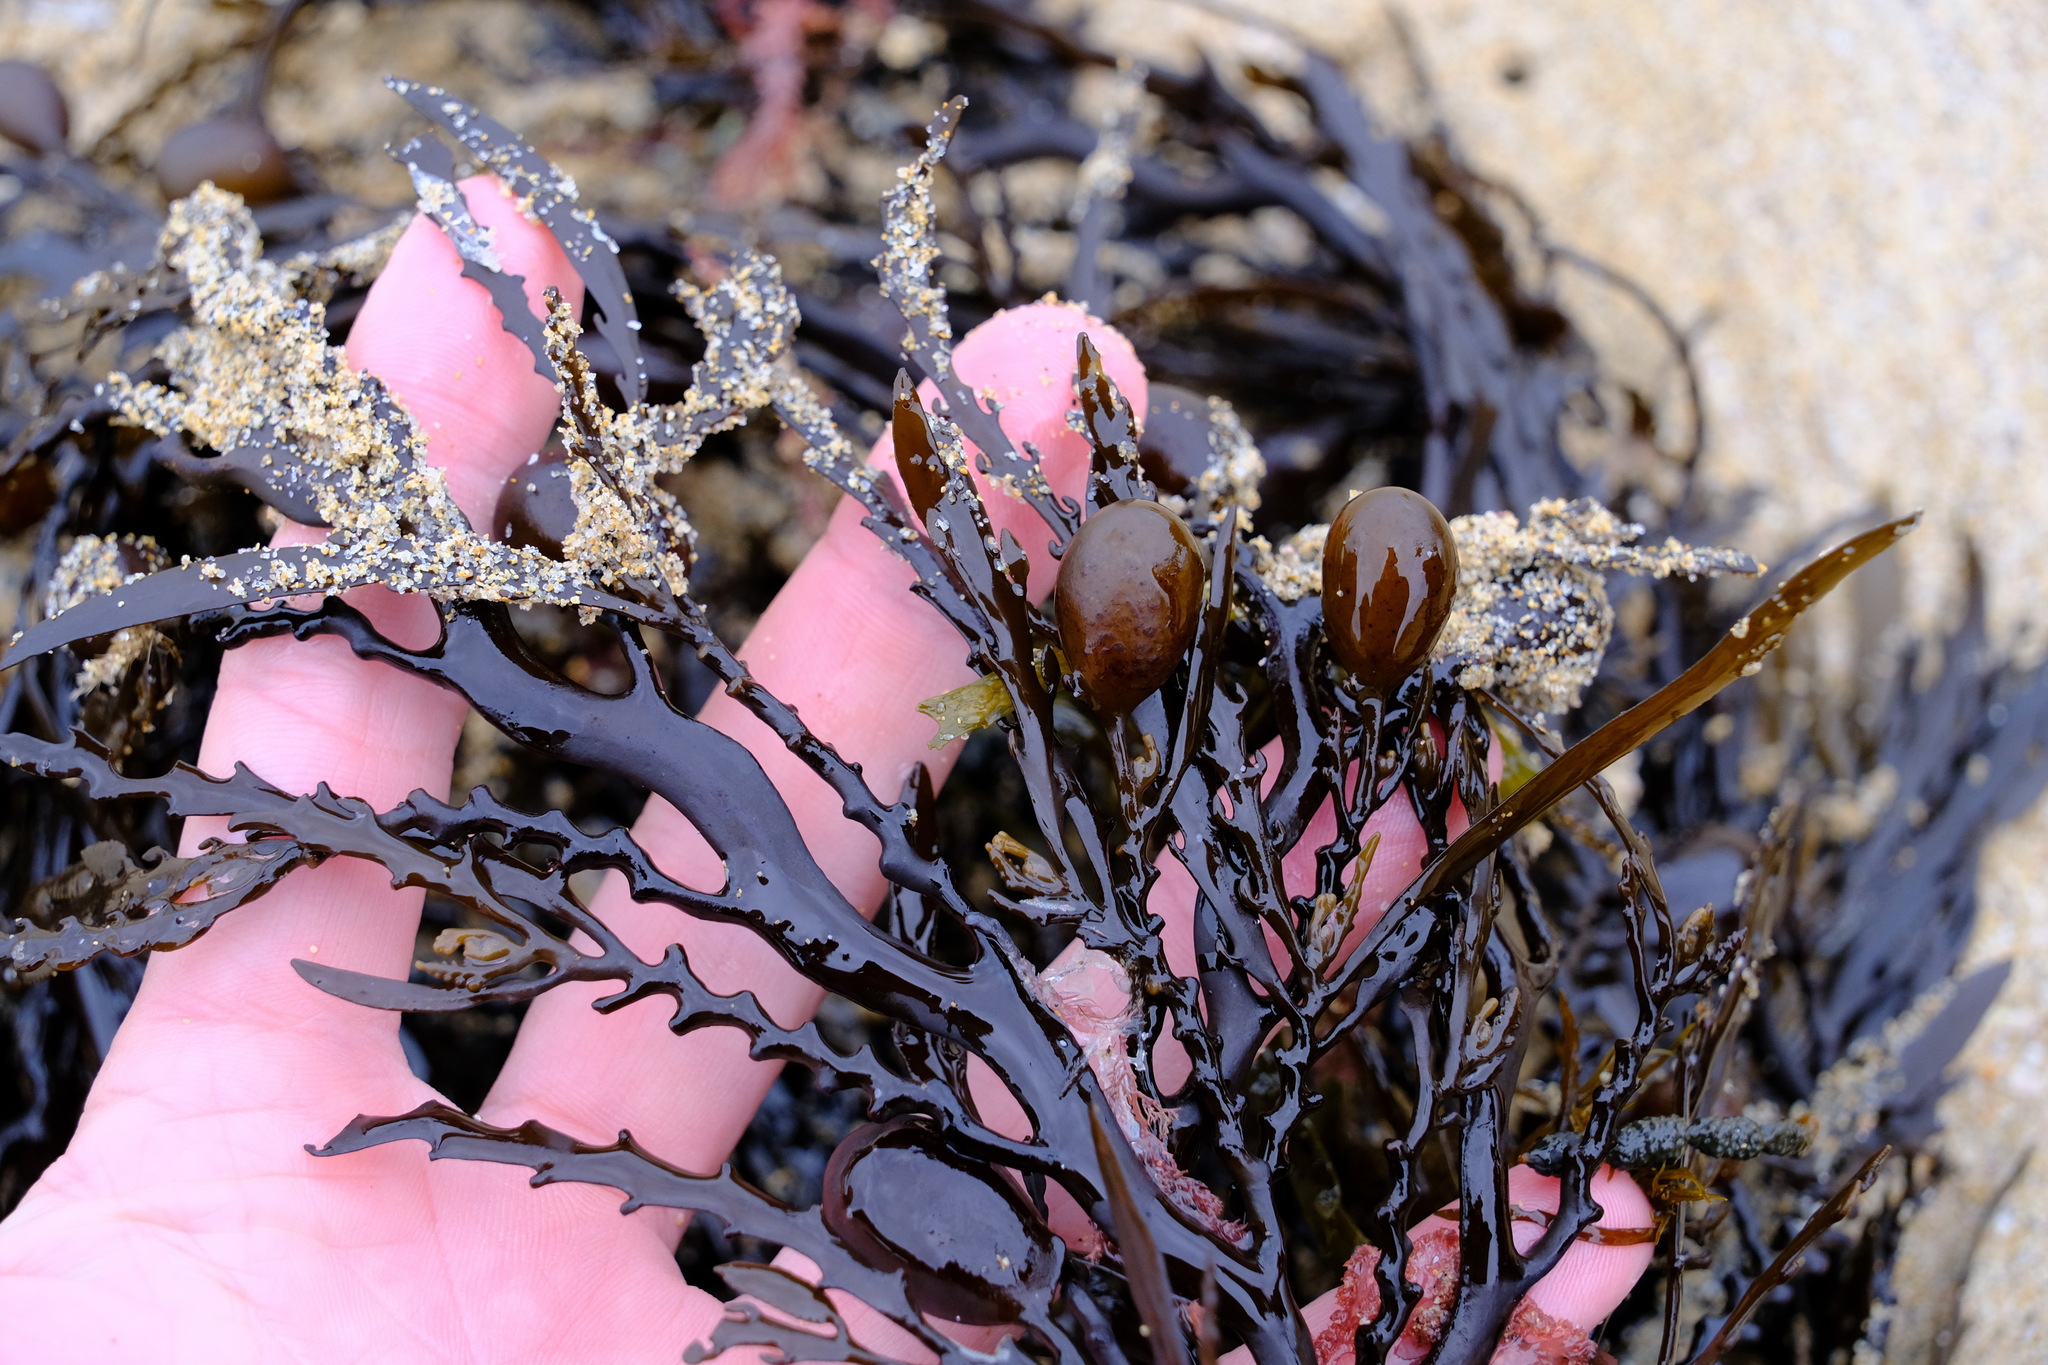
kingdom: Chromista
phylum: Ochrophyta
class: Phaeophyceae
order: Fucales
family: Sargassaceae
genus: Cystophora
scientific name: Cystophora platylobium
